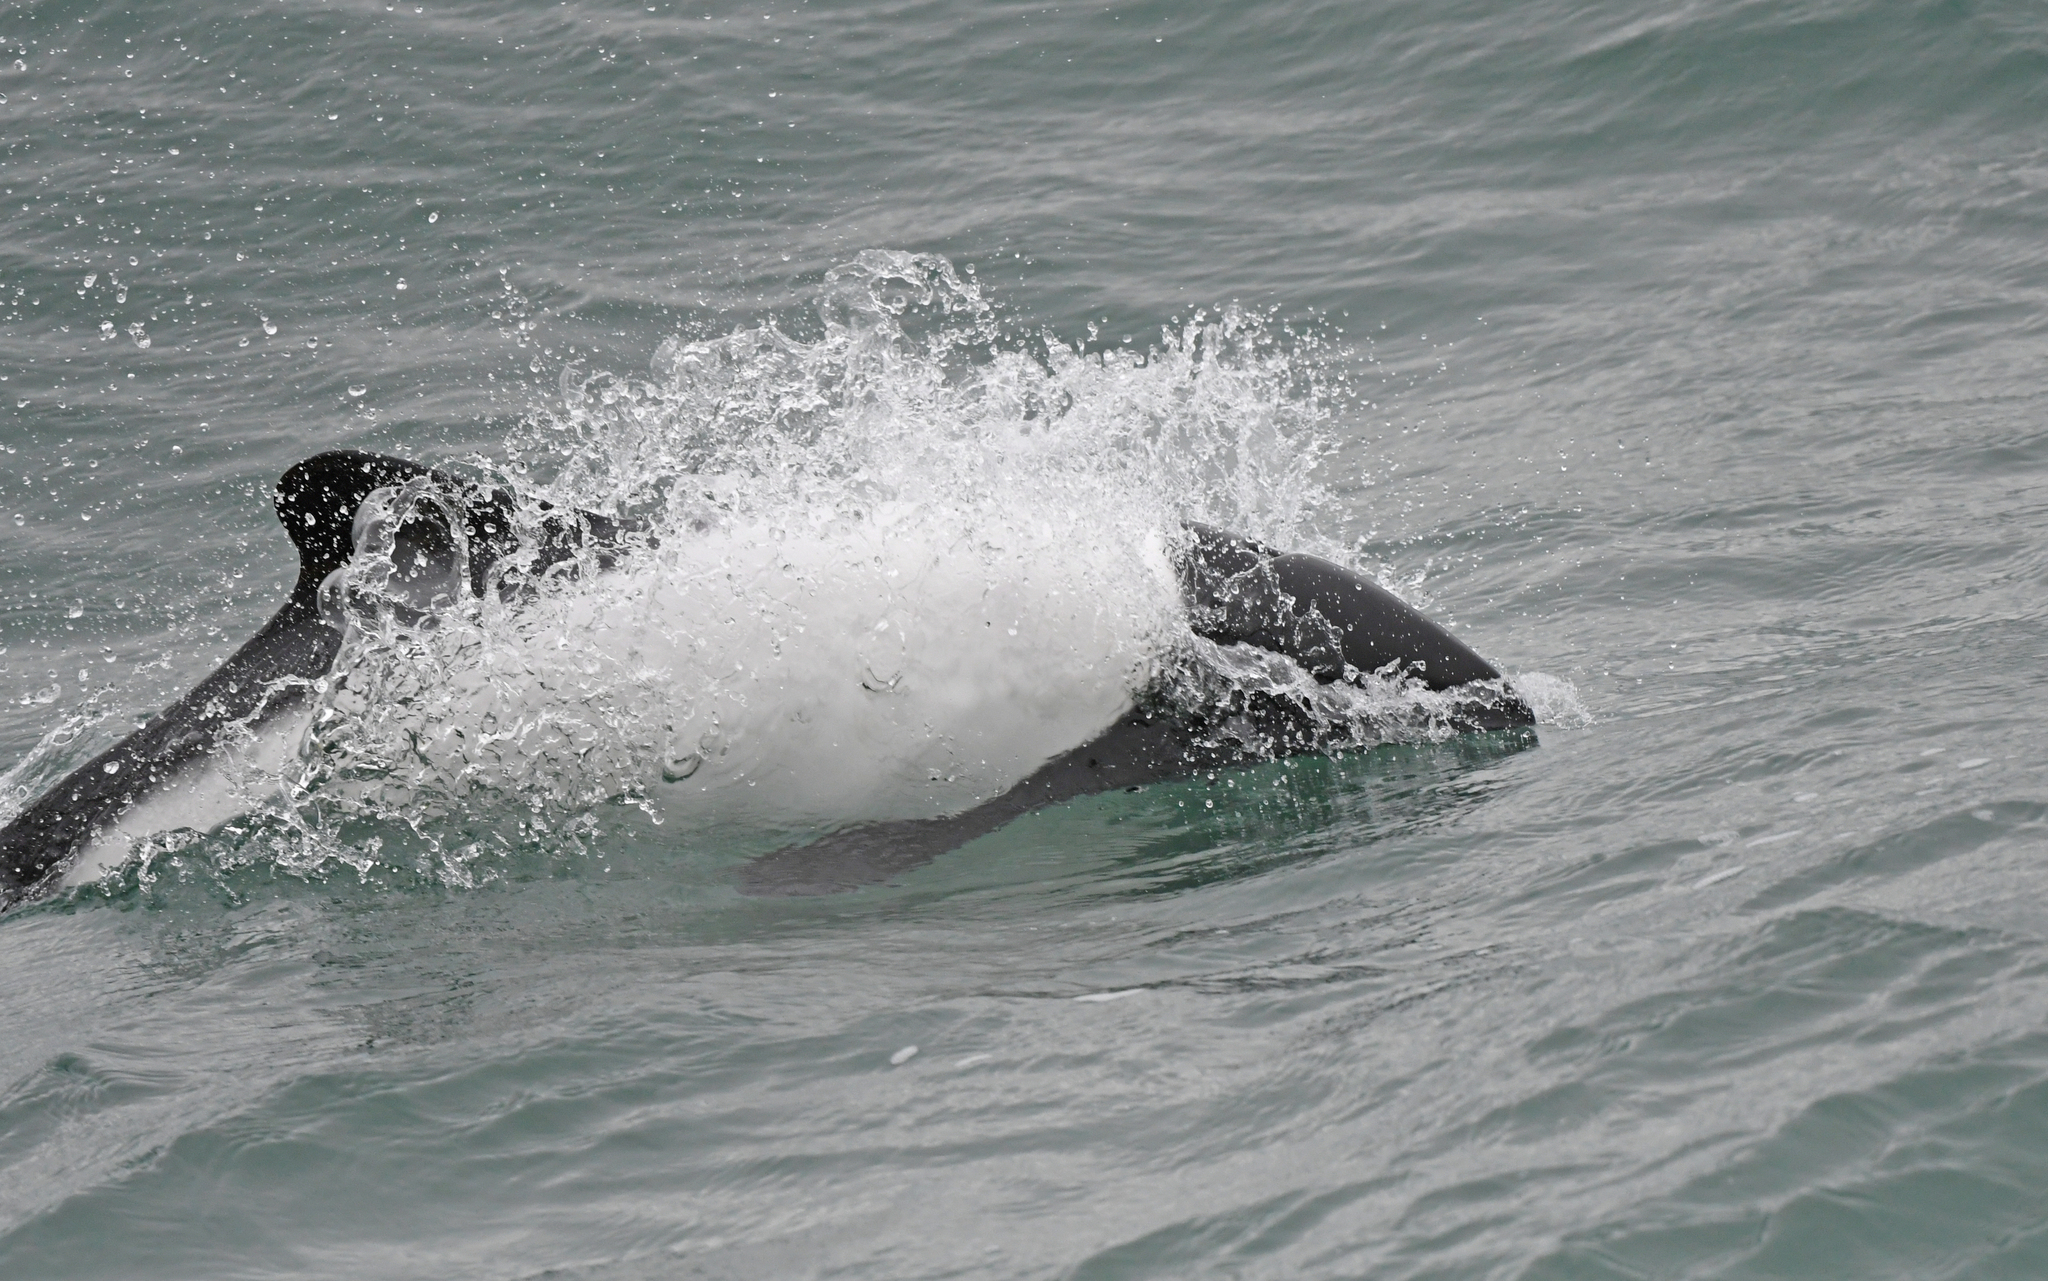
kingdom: Animalia
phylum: Chordata
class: Mammalia
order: Cetacea
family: Delphinidae
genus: Cephalorhynchus
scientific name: Cephalorhynchus commersonii
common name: Commerson's dolphin
